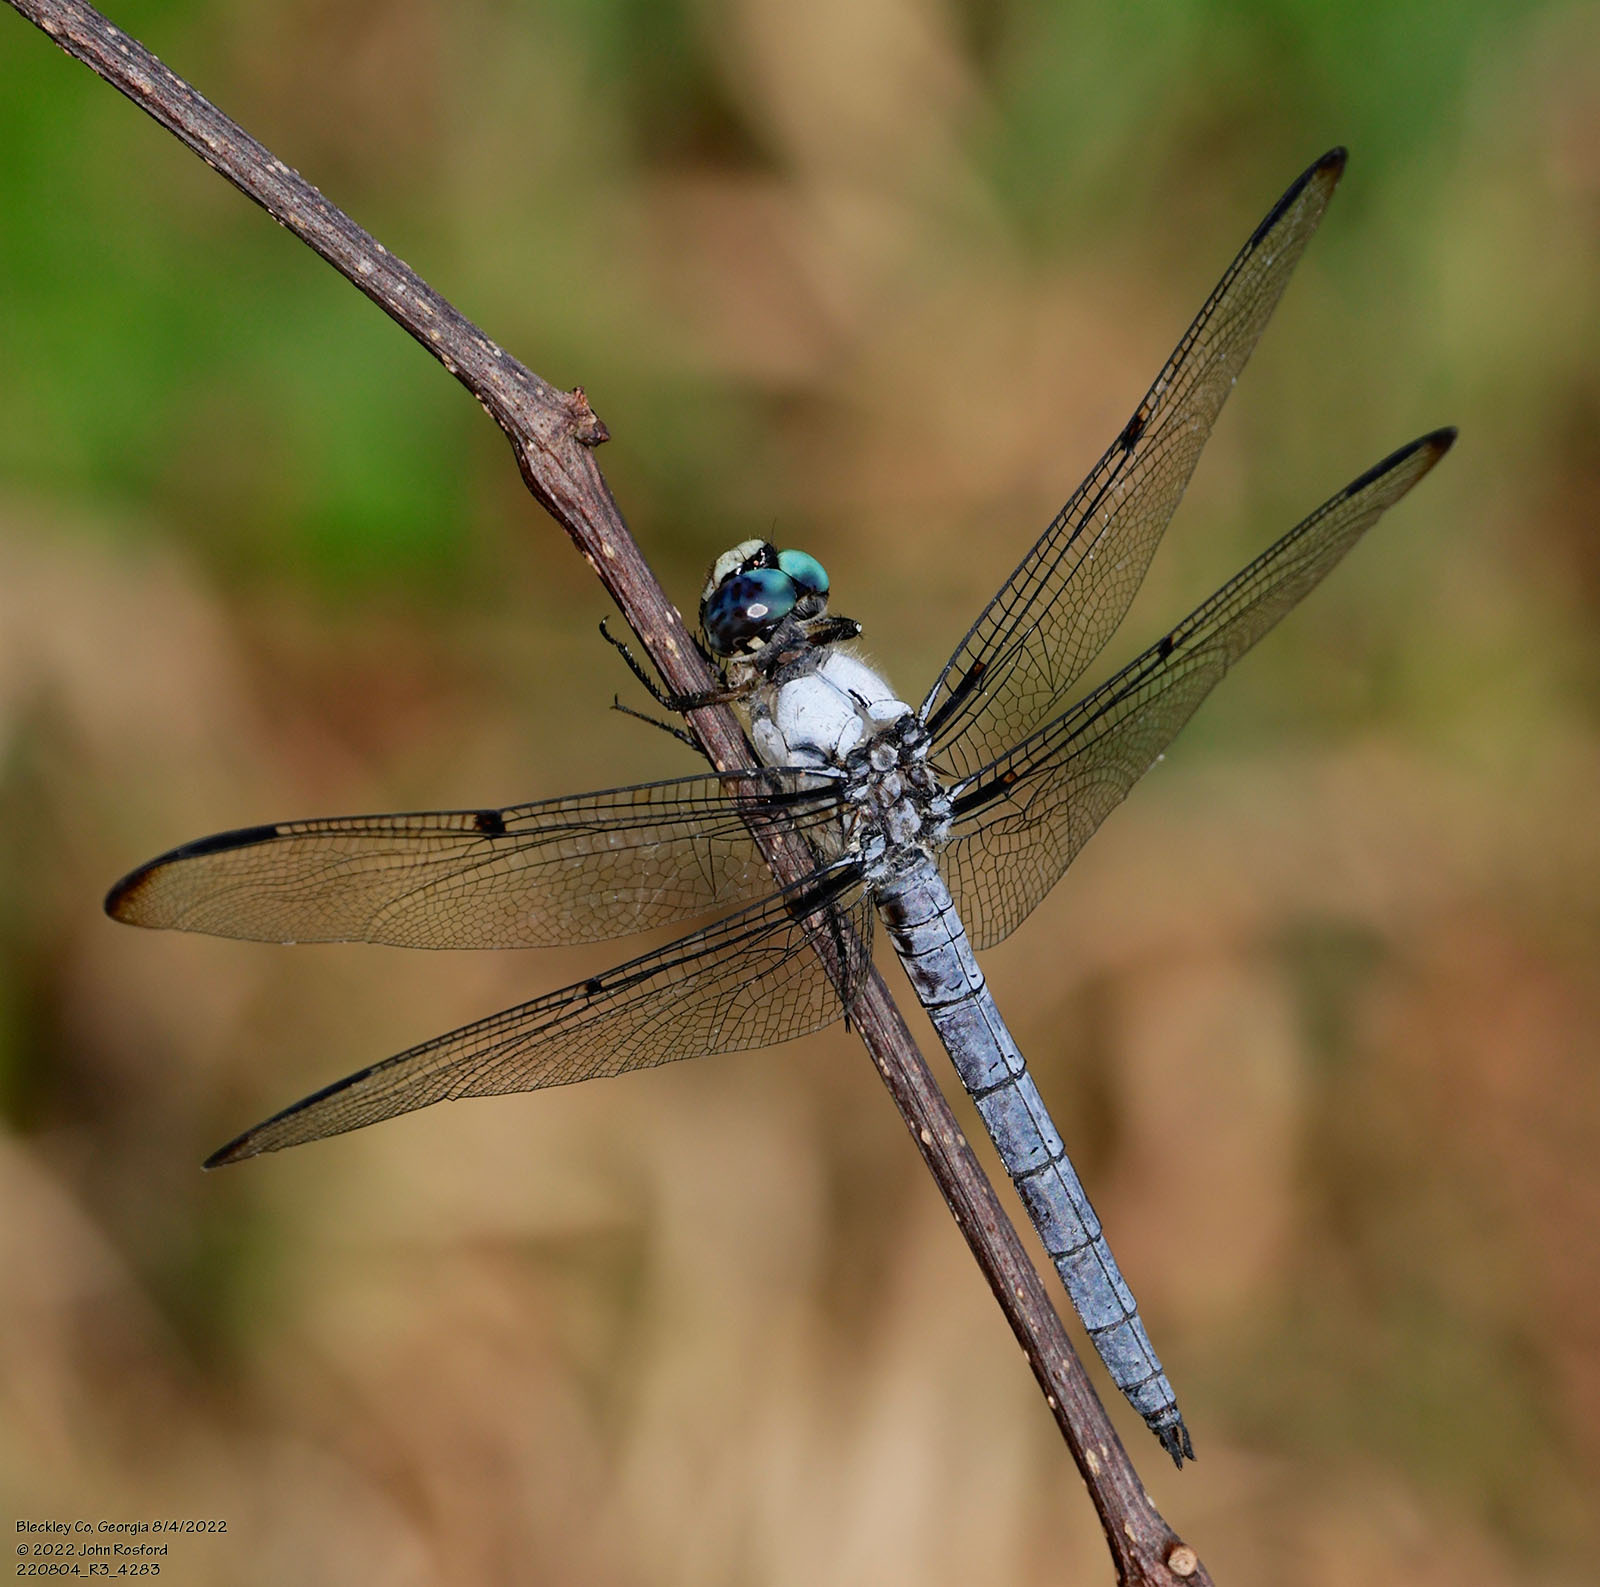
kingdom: Animalia
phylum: Arthropoda
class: Insecta
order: Odonata
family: Libellulidae
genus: Libellula
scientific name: Libellula vibrans
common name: Great blue skimmer
